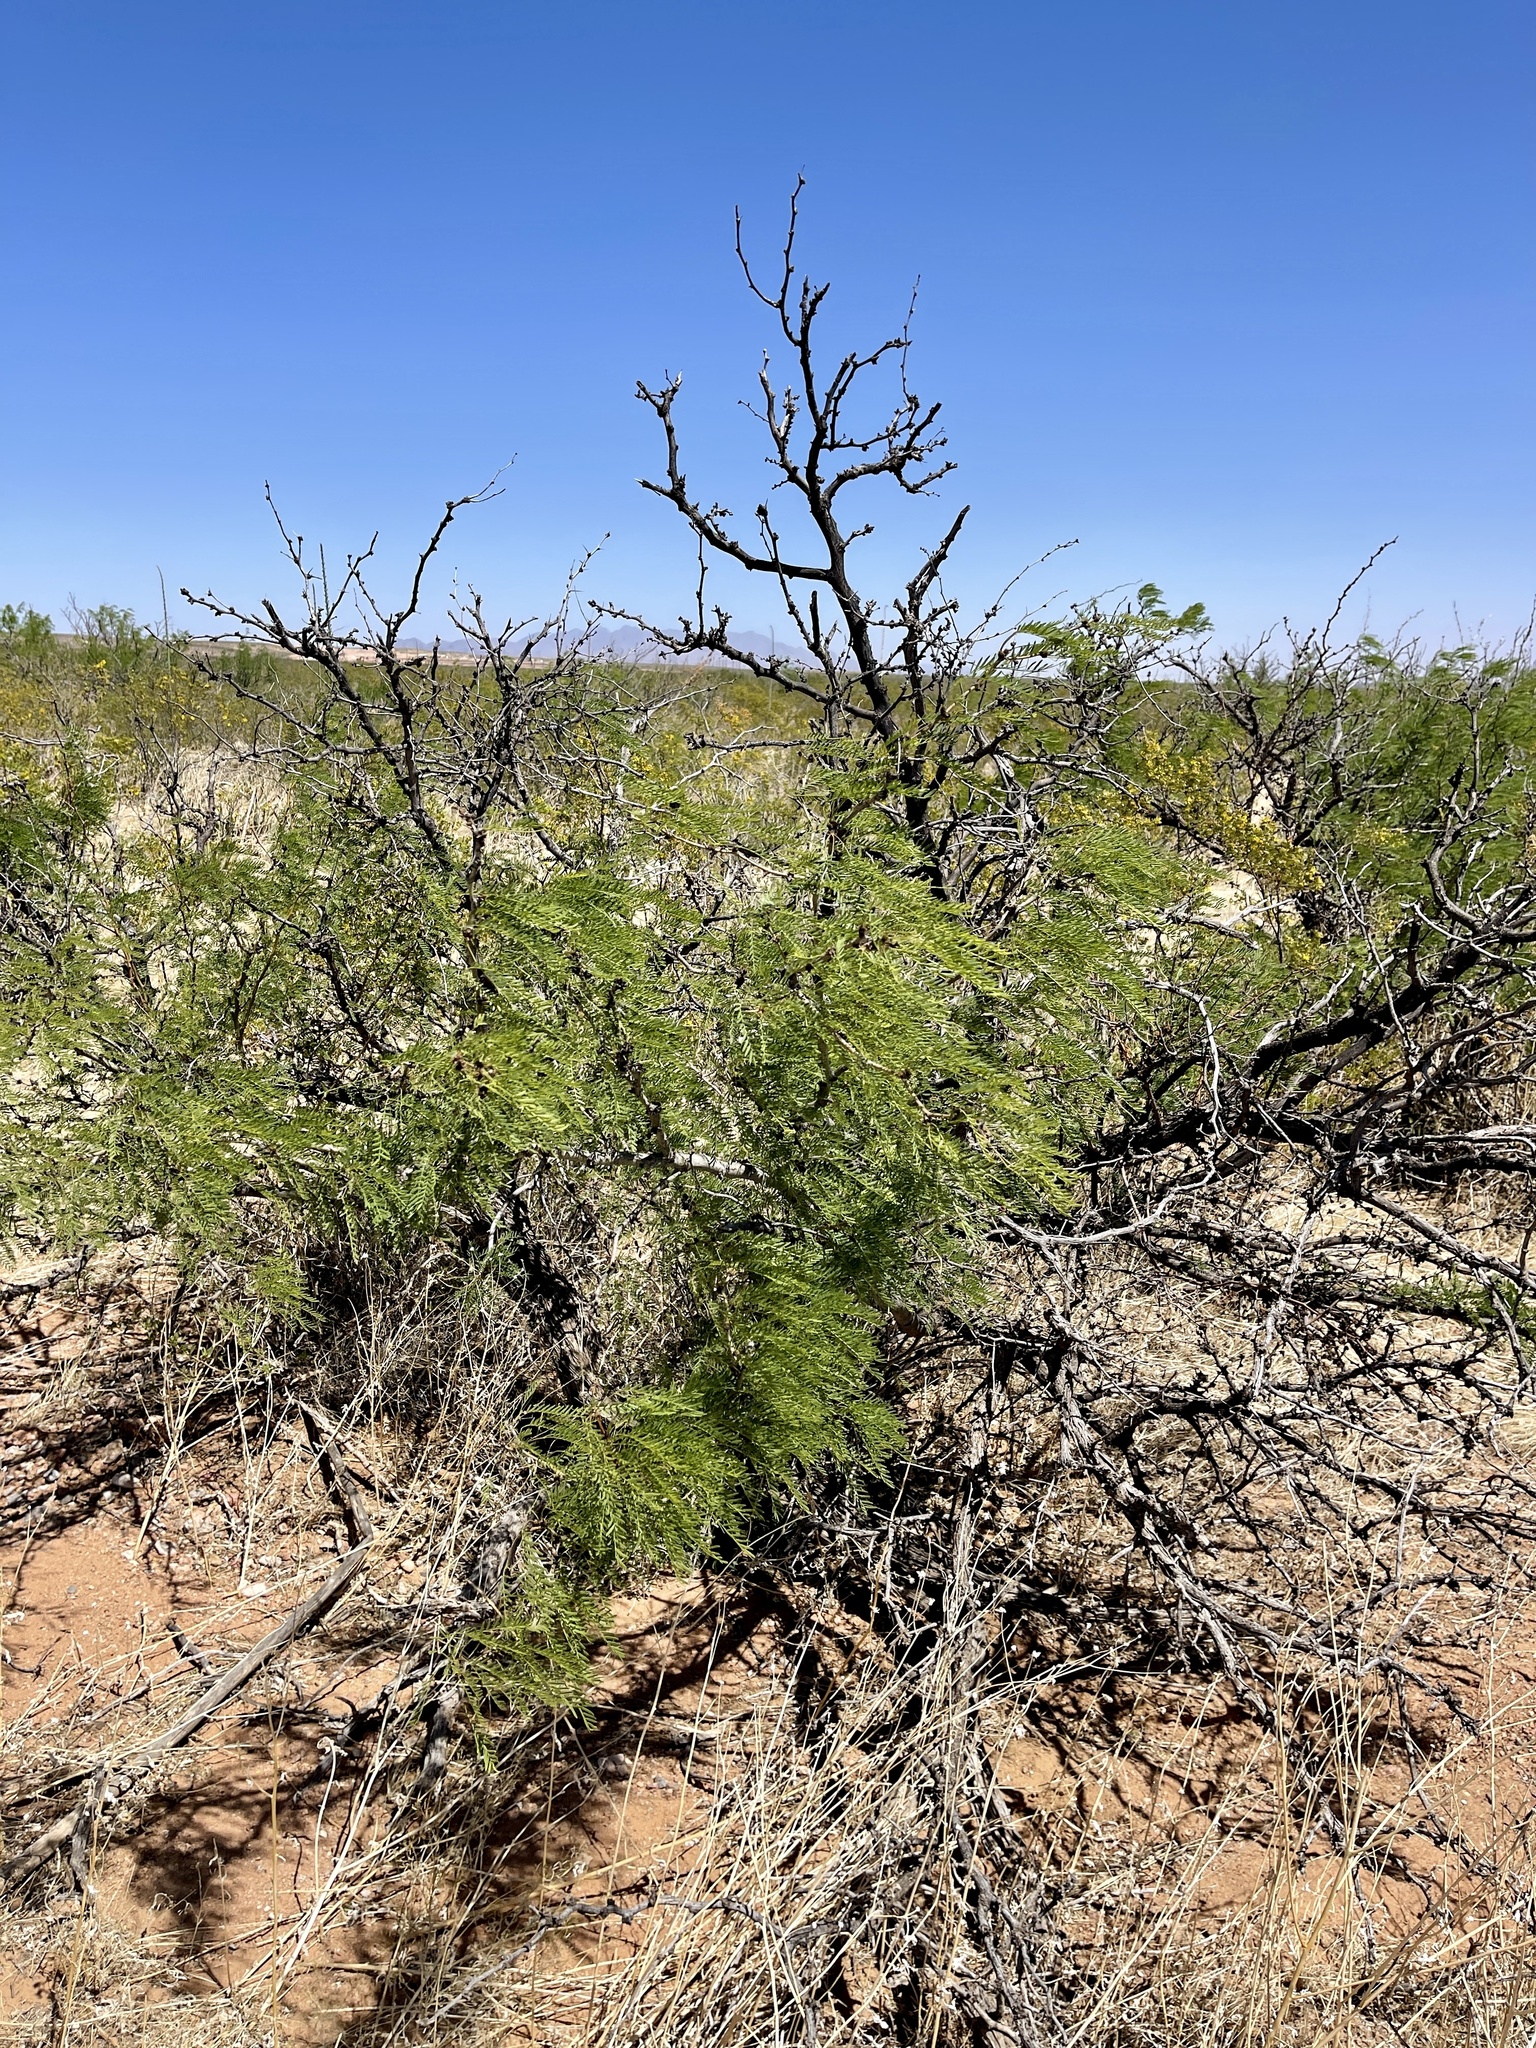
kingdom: Plantae
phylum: Tracheophyta
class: Magnoliopsida
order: Fabales
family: Fabaceae
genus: Prosopis
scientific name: Prosopis glandulosa
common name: Honey mesquite
